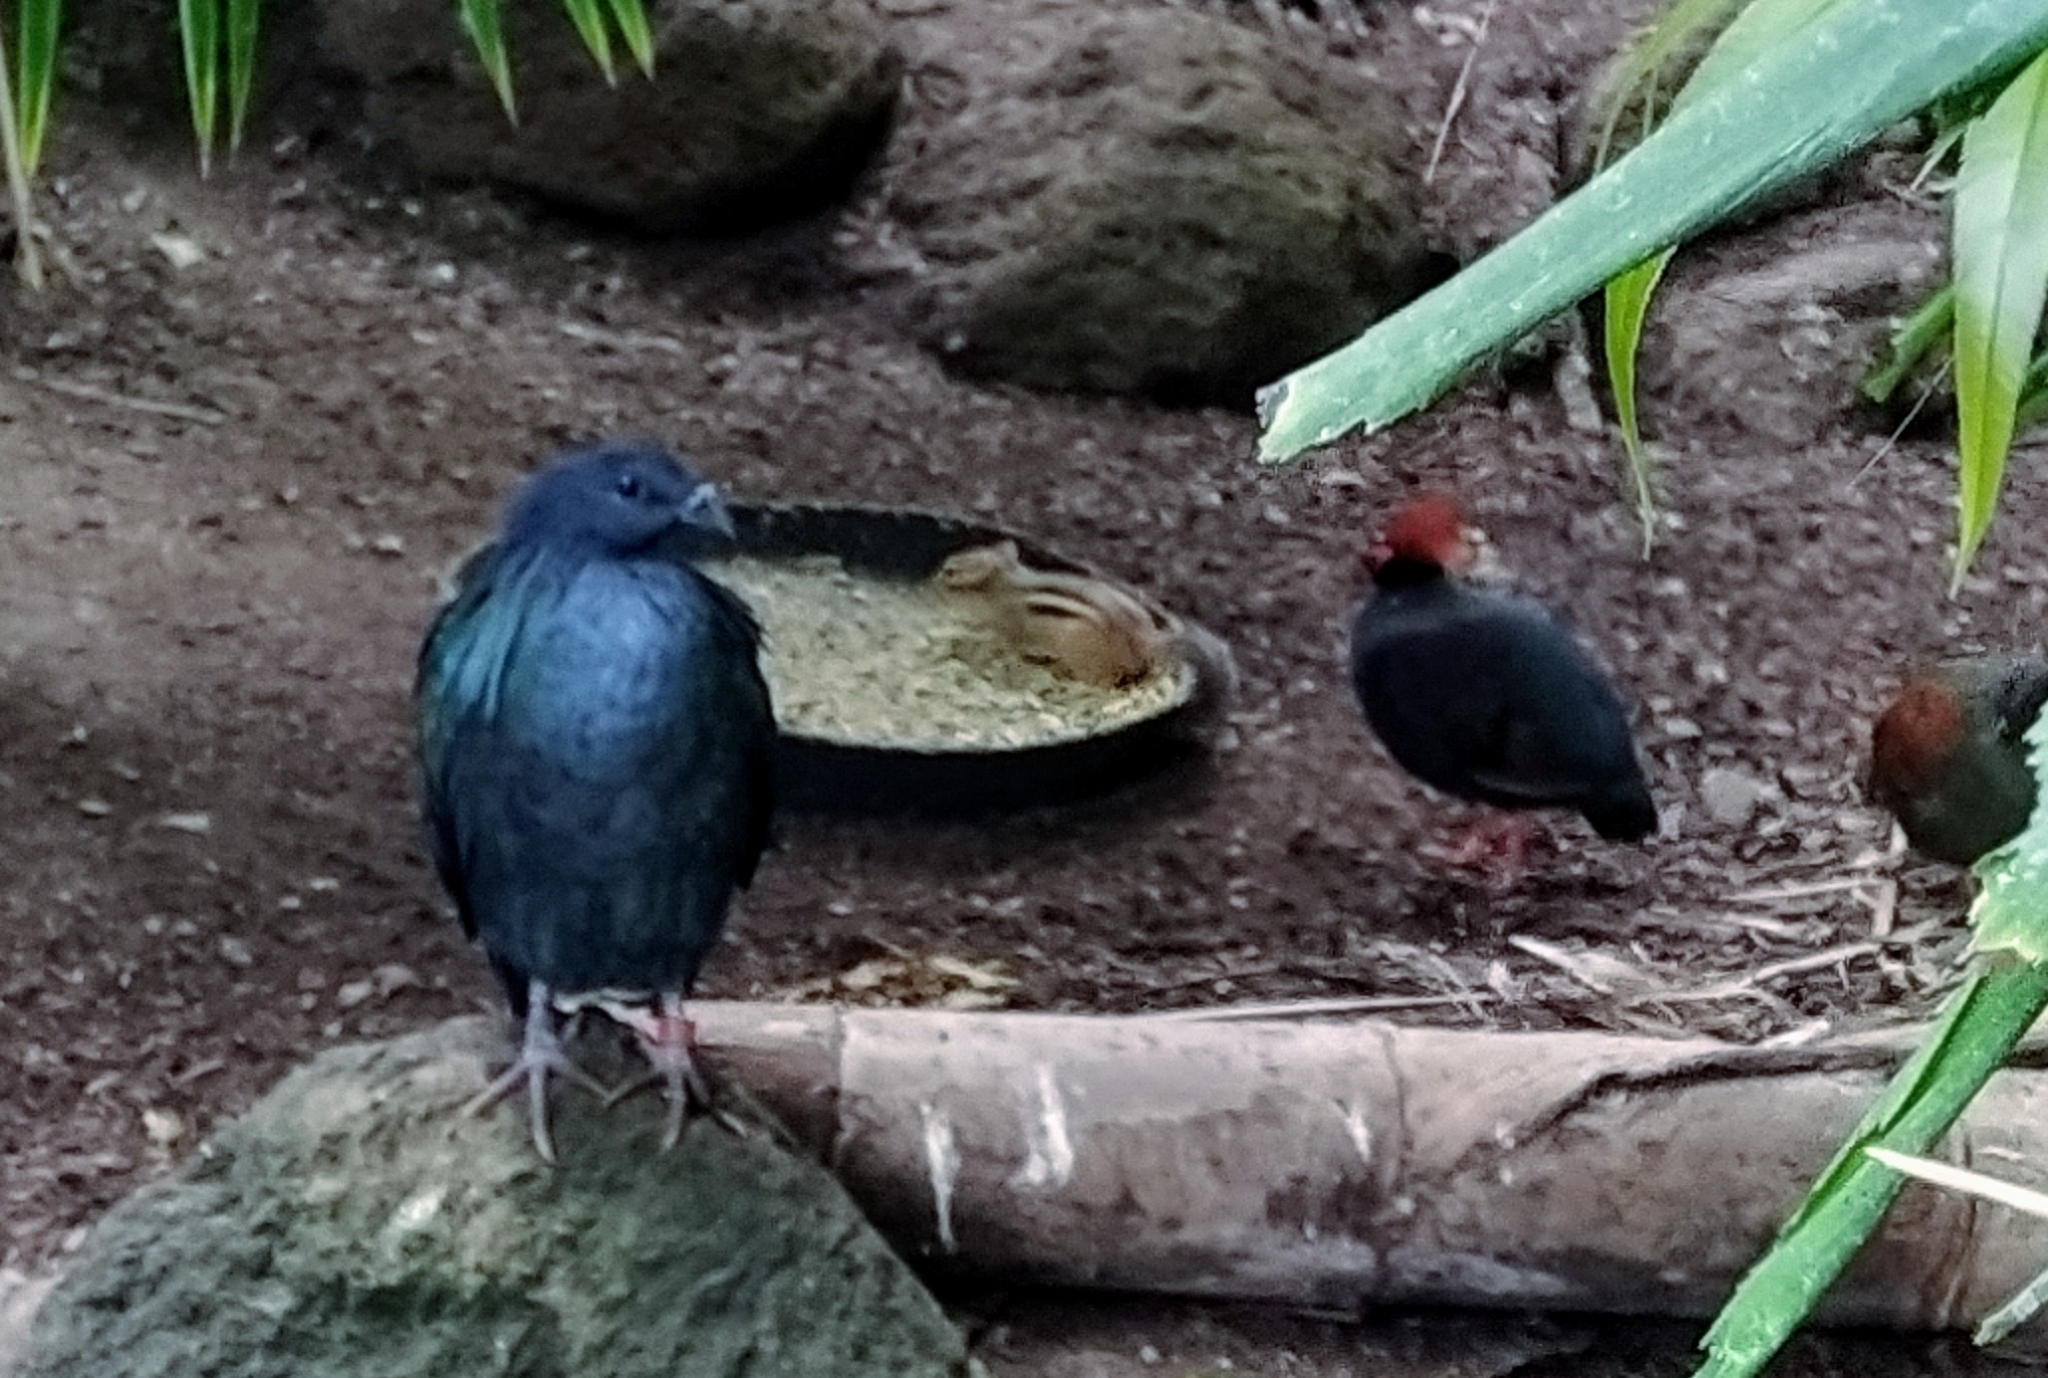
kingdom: Animalia
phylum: Chordata
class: Mammalia
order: Rodentia
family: Sciuridae
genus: Tamias
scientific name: Tamias striatus
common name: Eastern chipmunk
